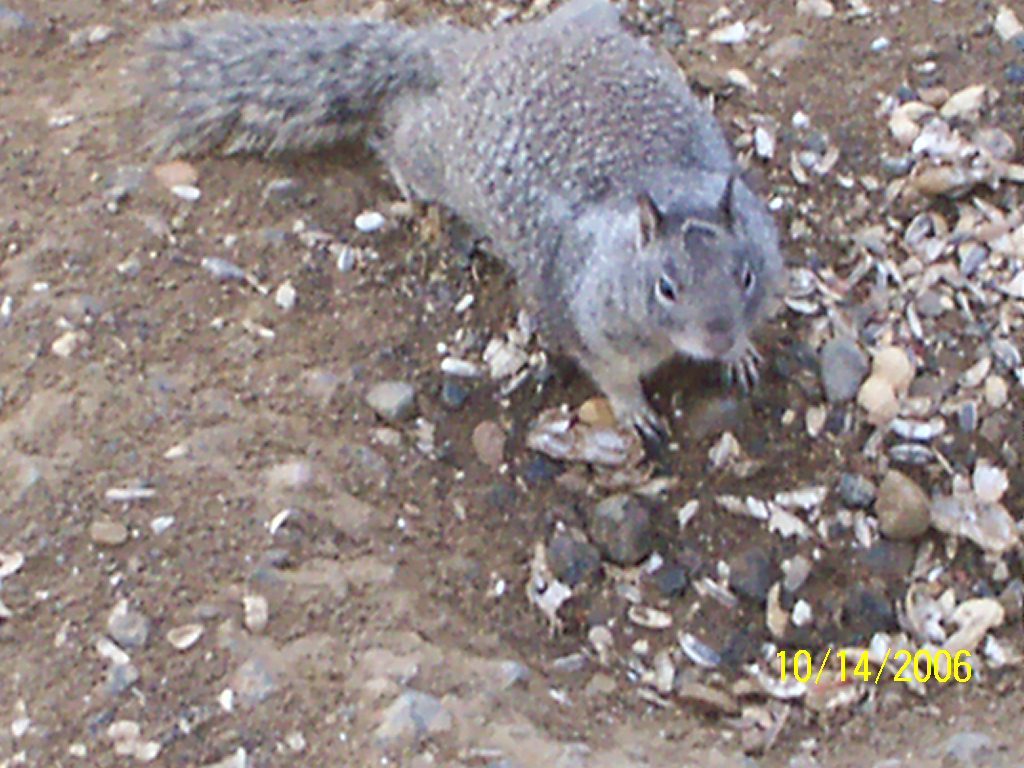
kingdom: Animalia
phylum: Chordata
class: Mammalia
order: Rodentia
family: Sciuridae
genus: Otospermophilus
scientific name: Otospermophilus beecheyi
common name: California ground squirrel
